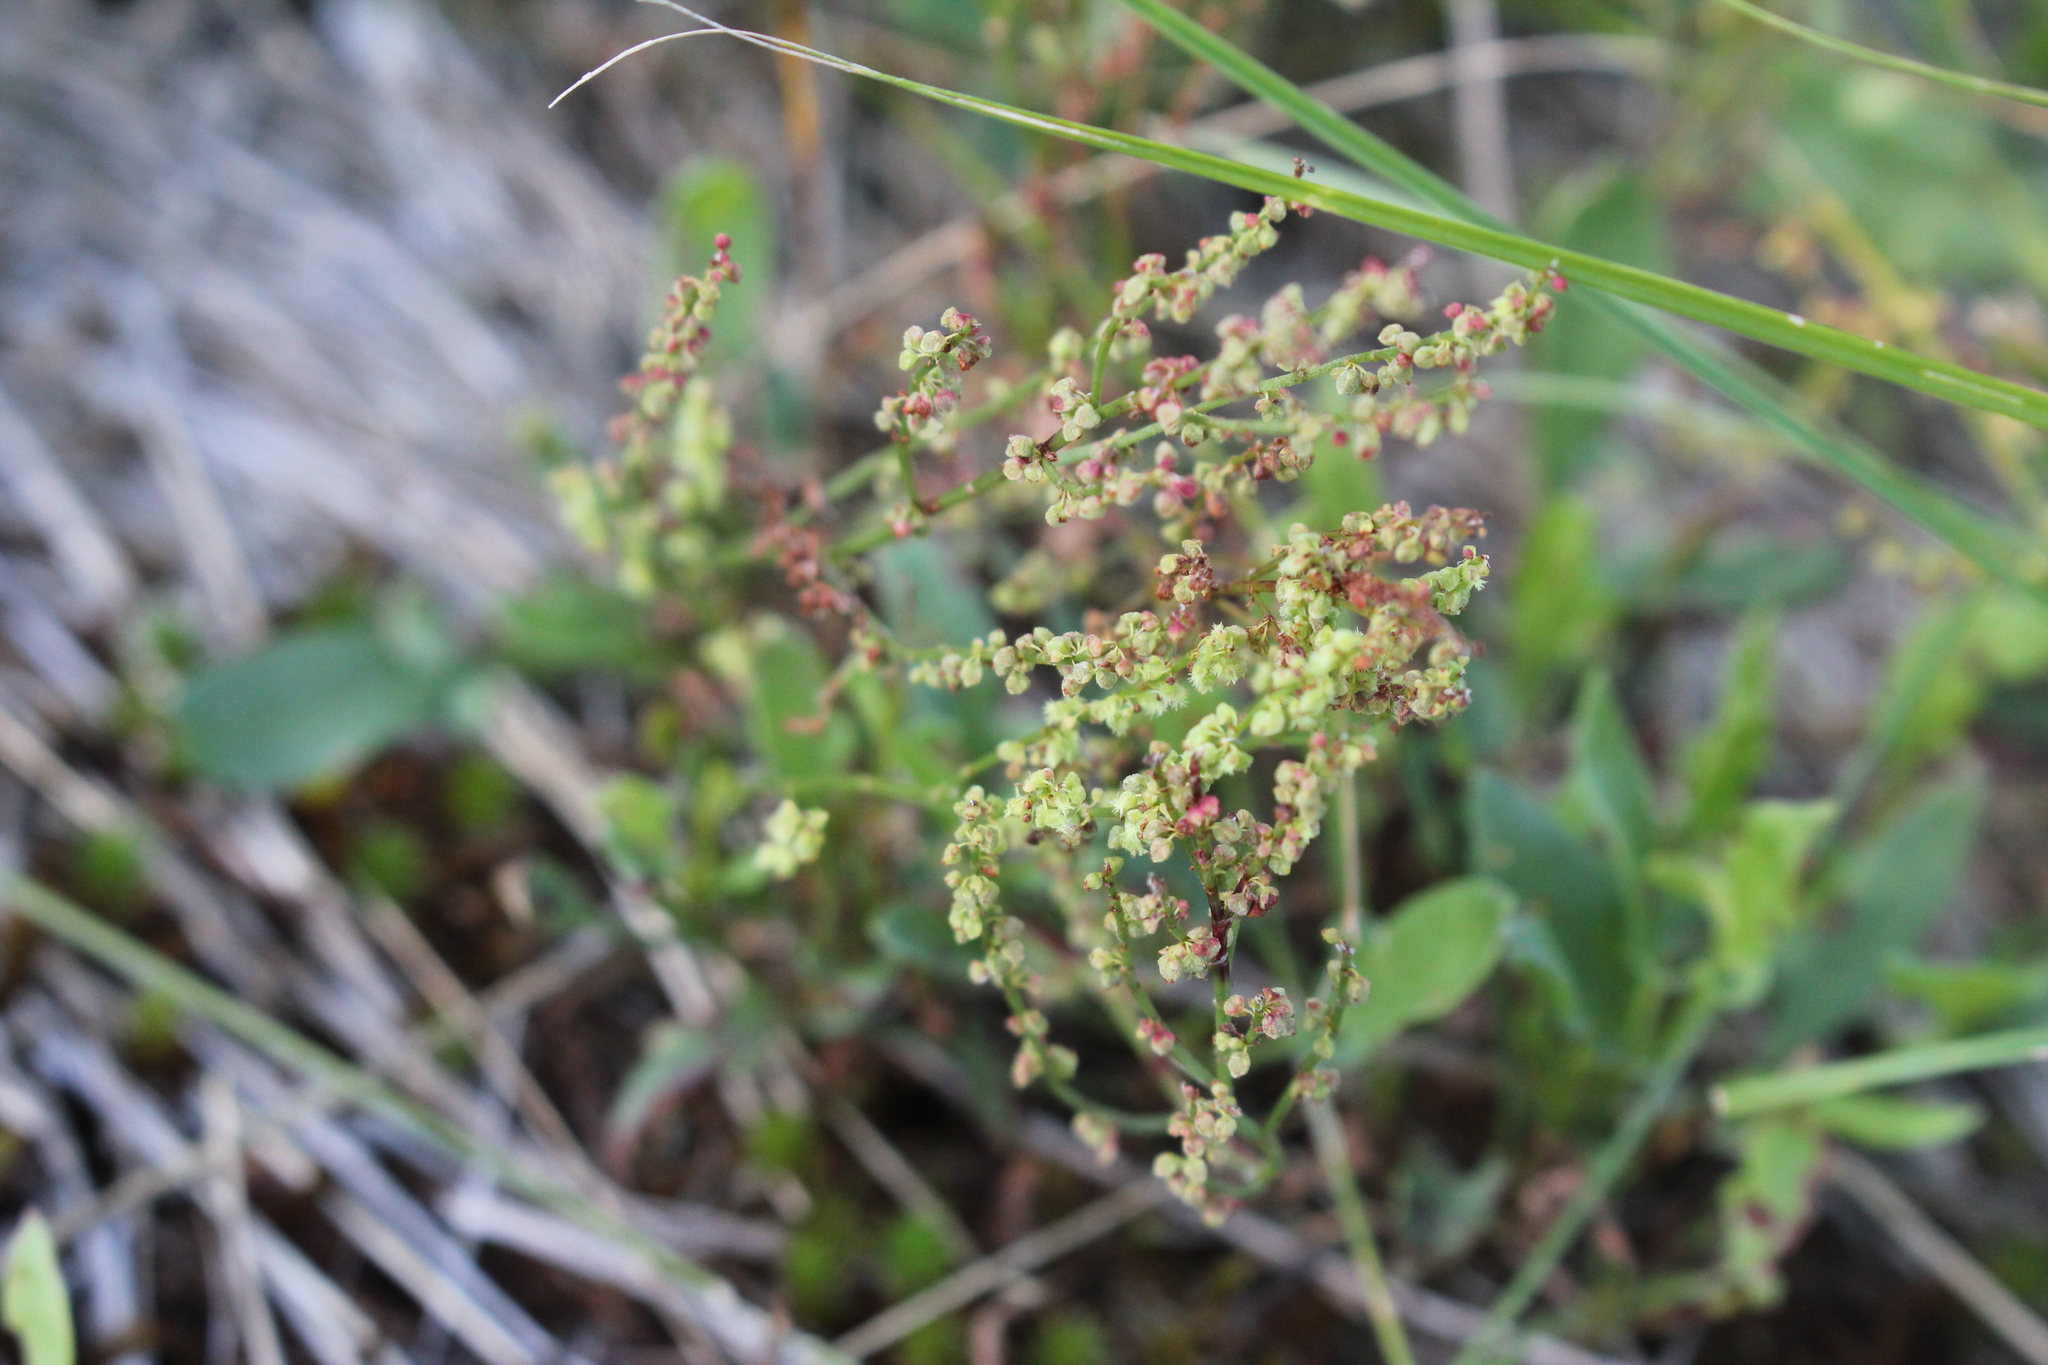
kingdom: Plantae
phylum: Tracheophyta
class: Magnoliopsida
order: Caryophyllales
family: Polygonaceae
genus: Rumex
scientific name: Rumex acetosella
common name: Common sheep sorrel
